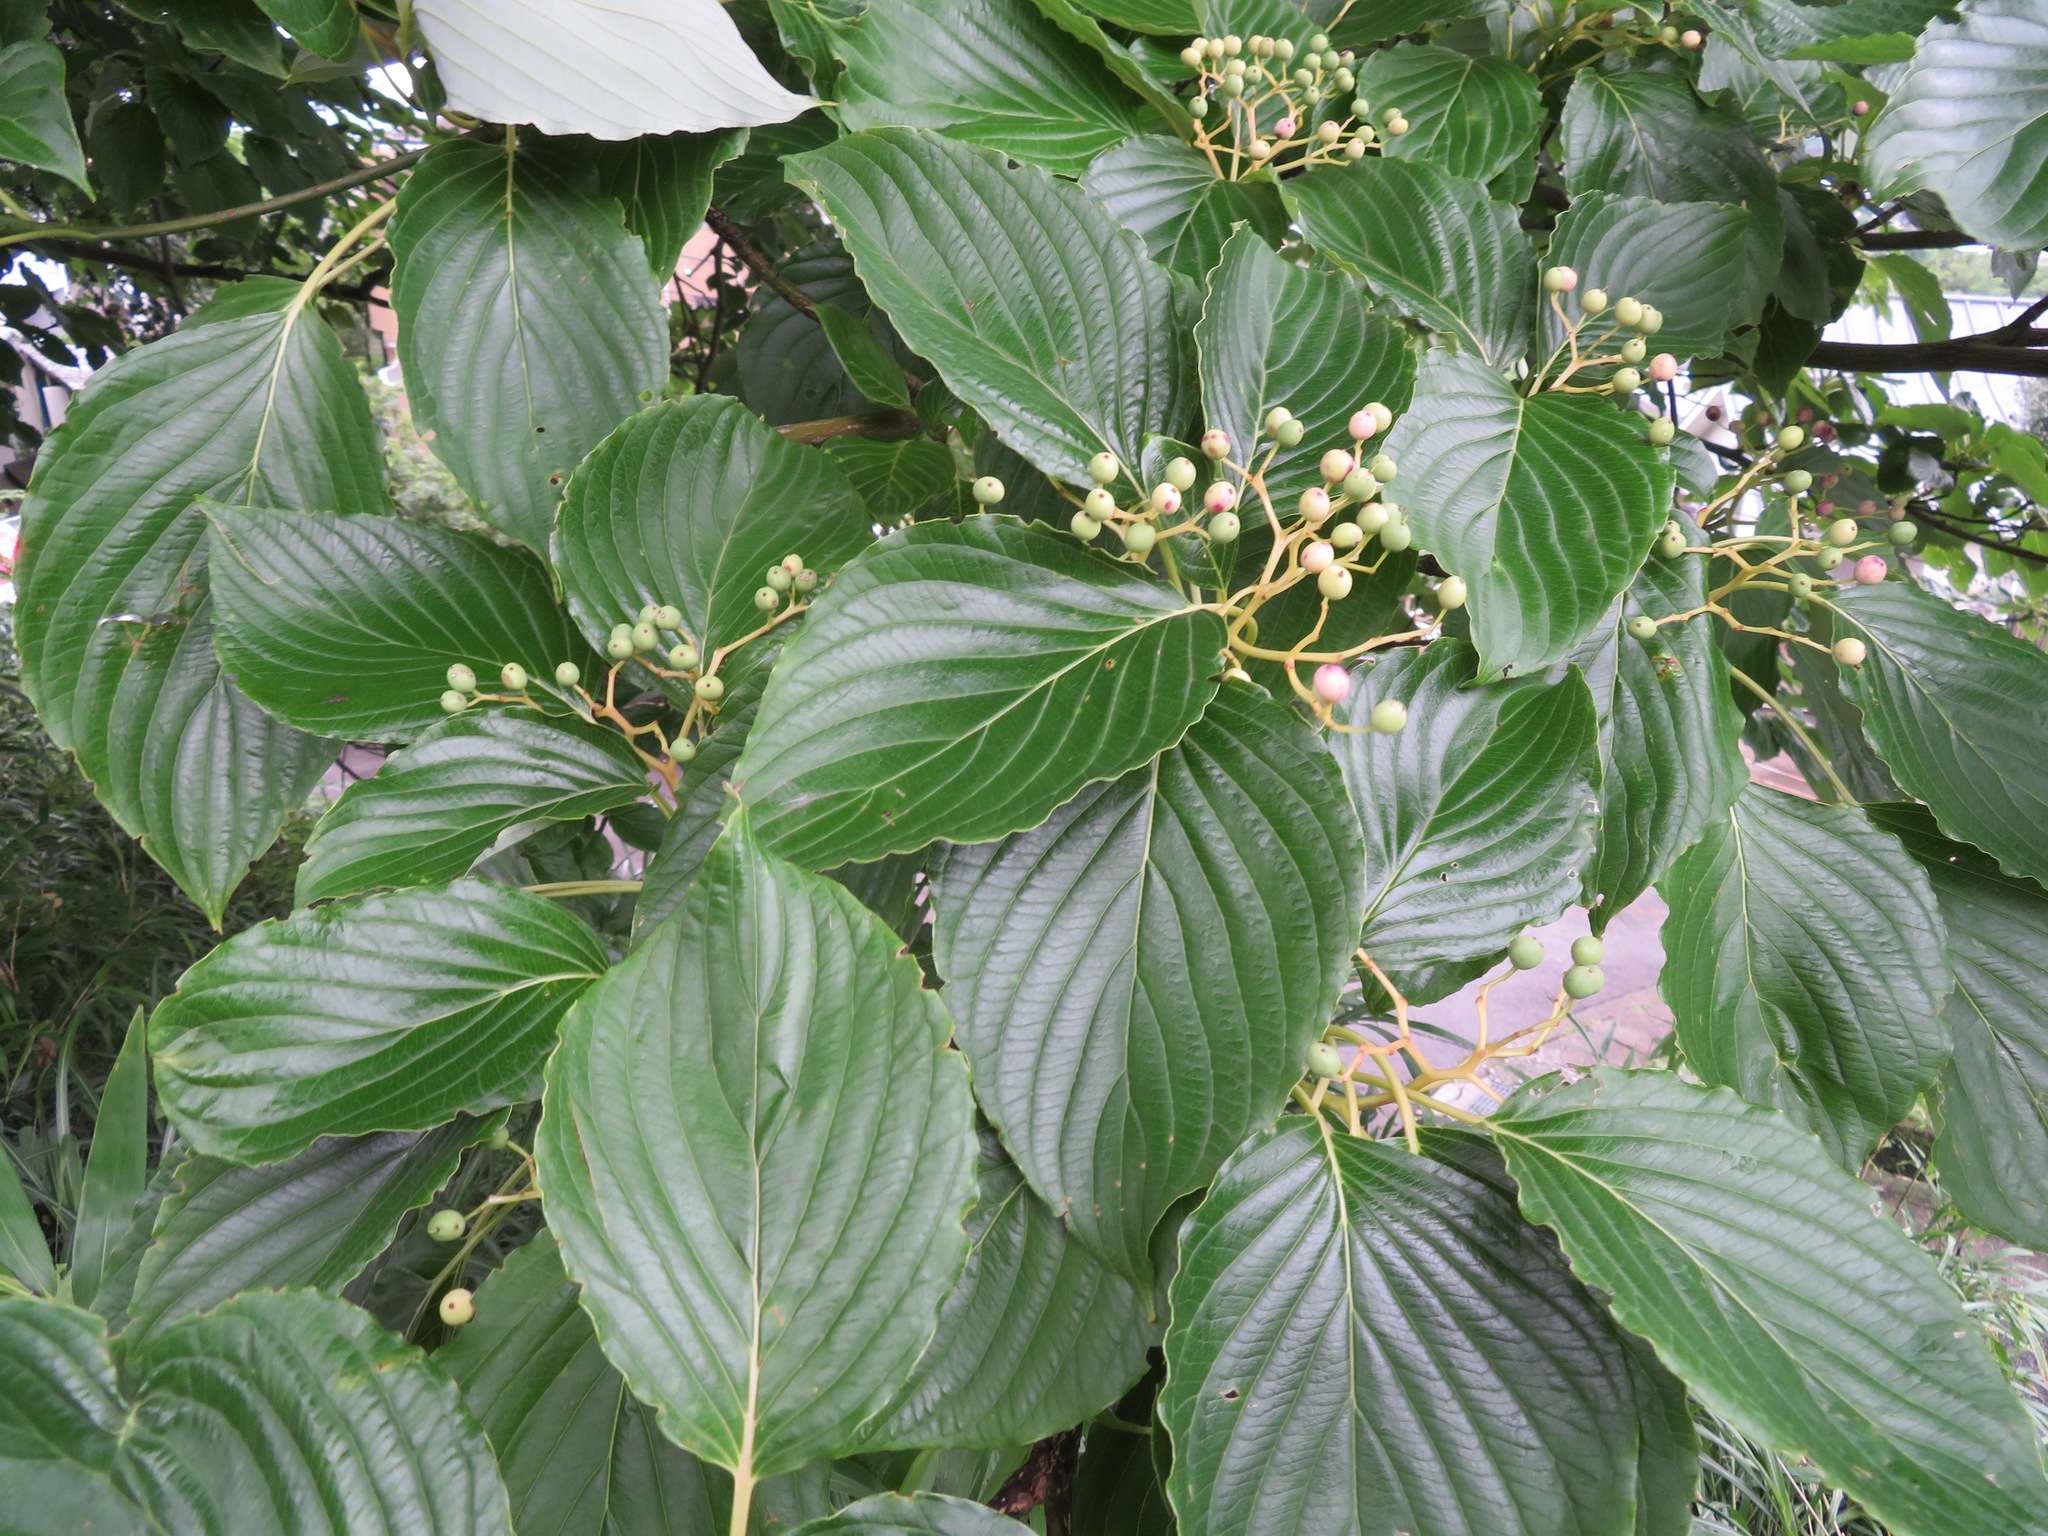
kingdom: Plantae
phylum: Tracheophyta
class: Magnoliopsida
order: Cornales
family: Cornaceae
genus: Cornus
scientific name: Cornus controversa
